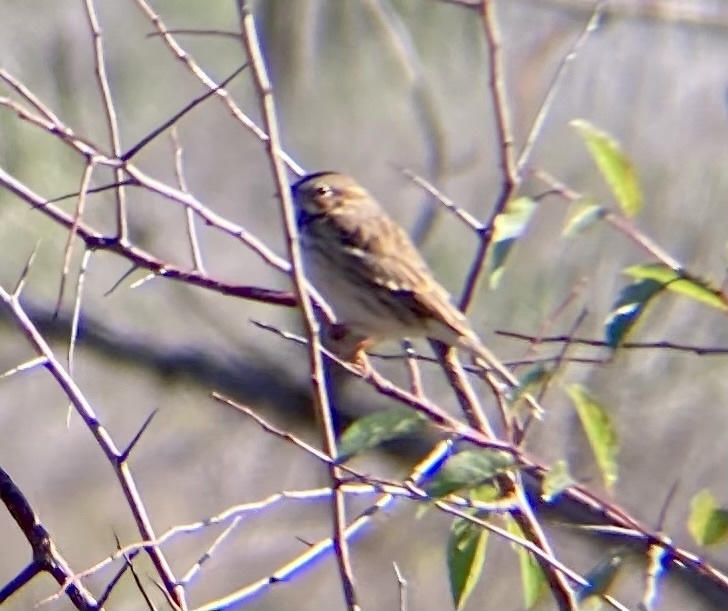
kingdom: Animalia
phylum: Chordata
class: Aves
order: Passeriformes
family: Passerellidae
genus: Passerculus
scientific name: Passerculus sandwichensis
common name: Savannah sparrow
